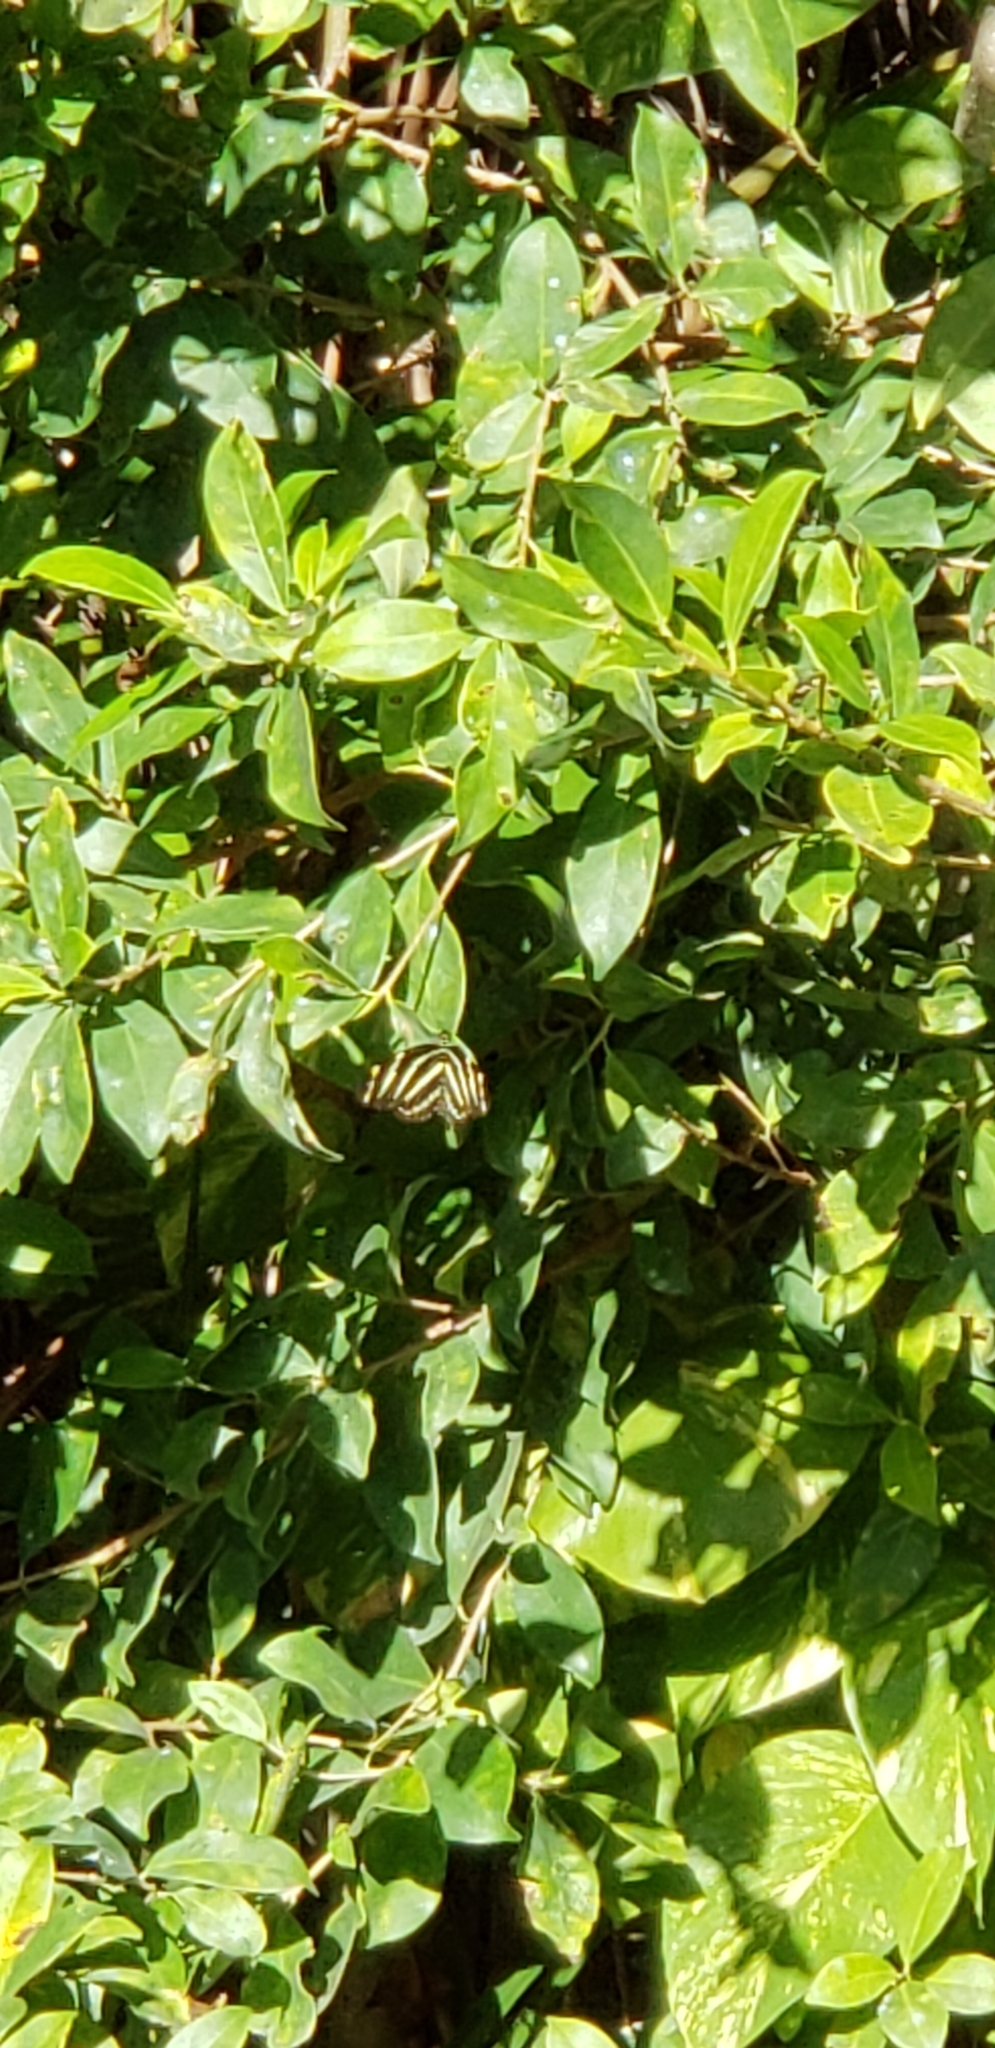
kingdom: Animalia
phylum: Arthropoda
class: Insecta
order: Lepidoptera
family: Nymphalidae
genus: Heliconius
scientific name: Heliconius charithonia
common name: Zebra long wing
